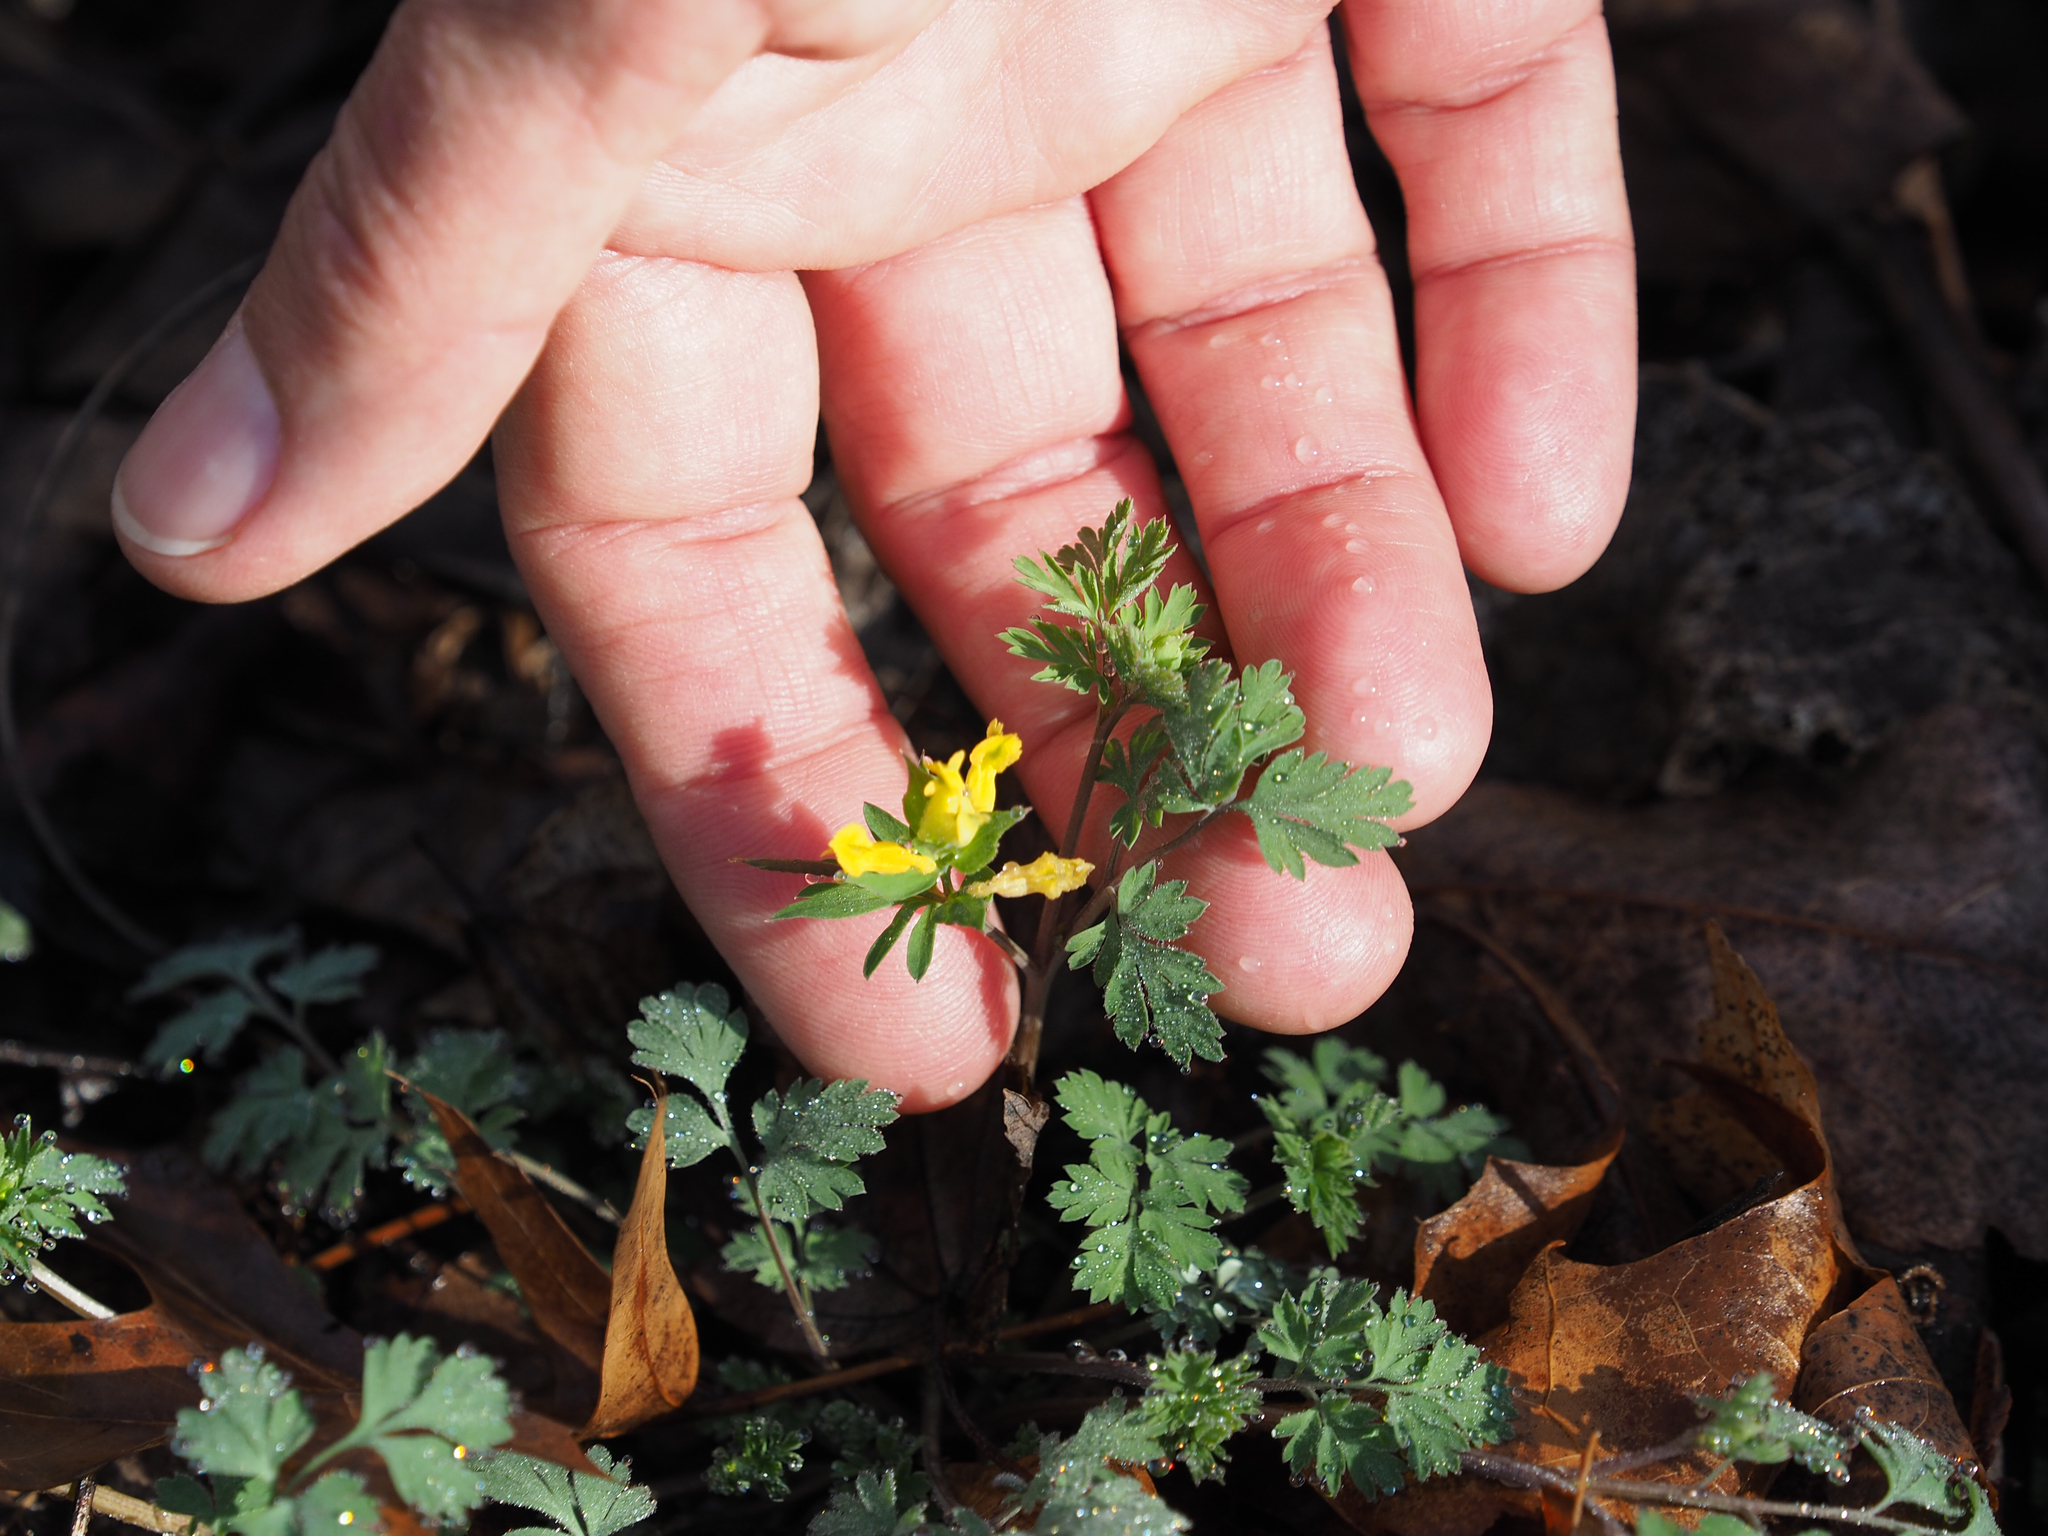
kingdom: Plantae
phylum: Tracheophyta
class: Magnoliopsida
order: Ranunculales
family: Papaveraceae
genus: Corydalis
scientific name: Corydalis flavula
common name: Yellow corydalis
